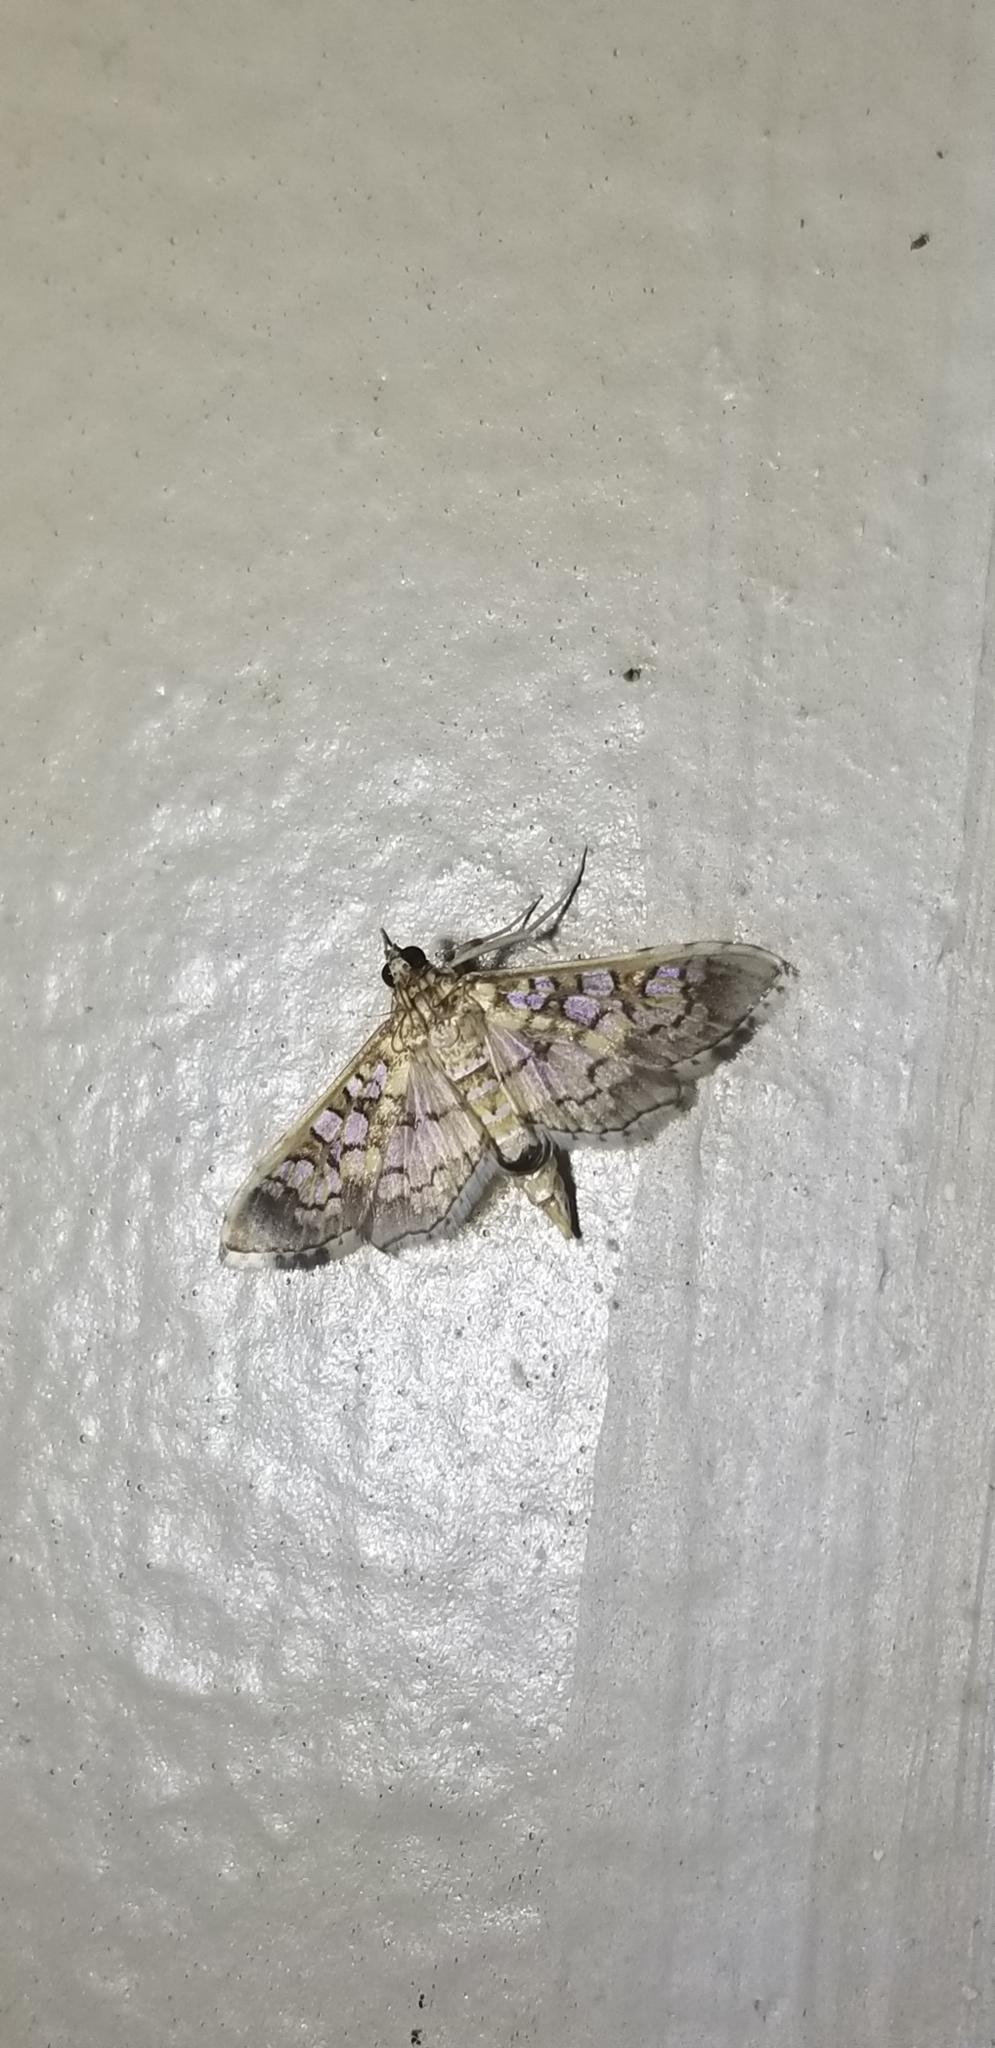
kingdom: Animalia
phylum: Arthropoda
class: Insecta
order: Lepidoptera
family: Crambidae
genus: Samea
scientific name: Samea ecclesialis
